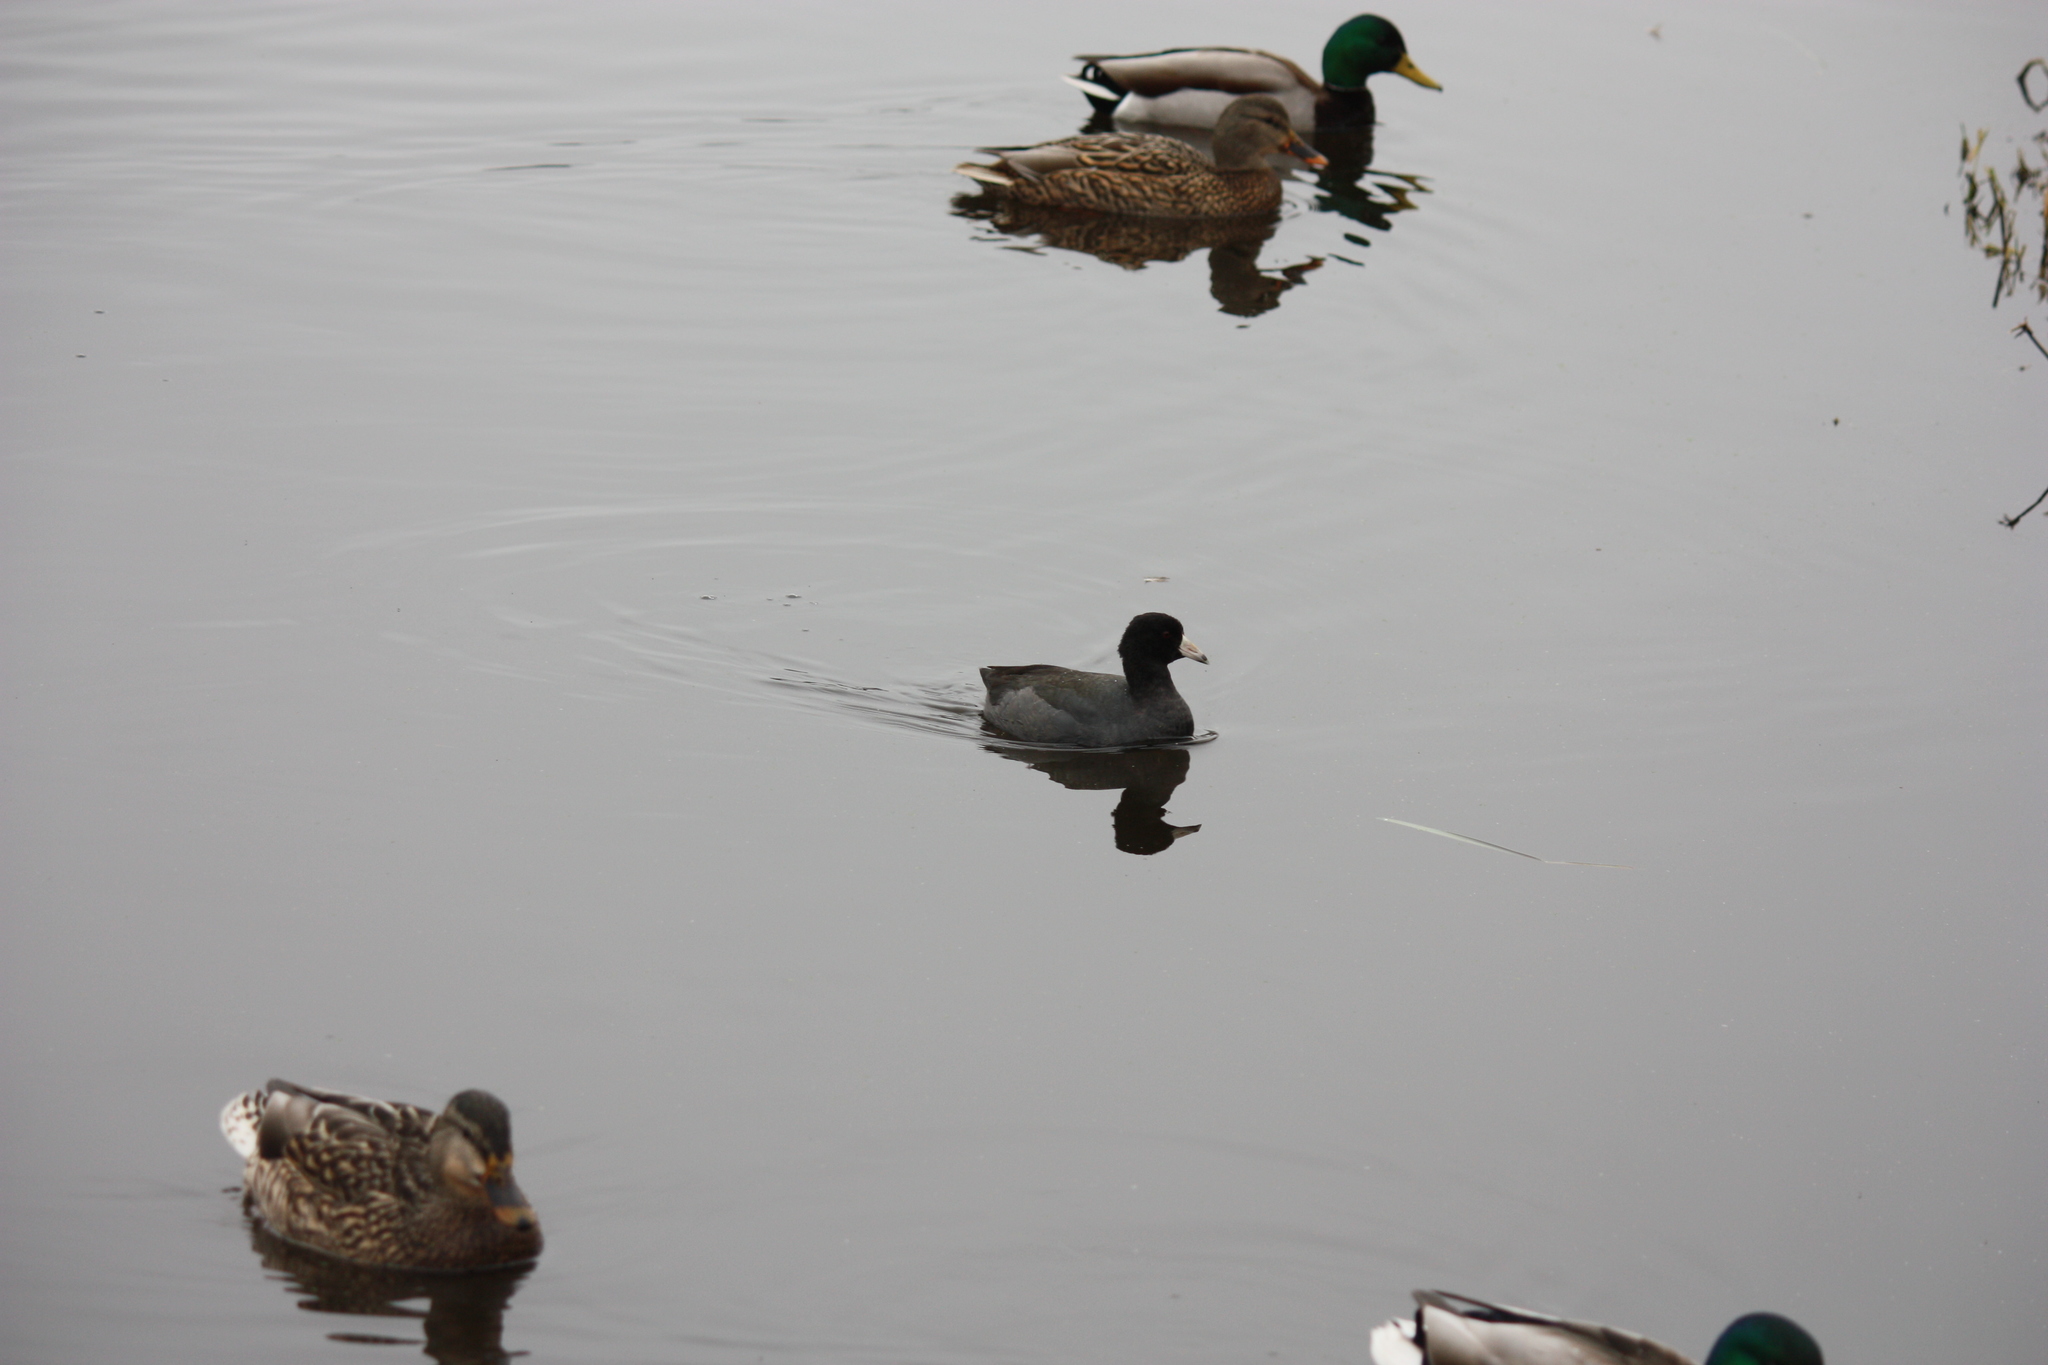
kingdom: Animalia
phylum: Chordata
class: Aves
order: Gruiformes
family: Rallidae
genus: Fulica
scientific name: Fulica americana
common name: American coot
